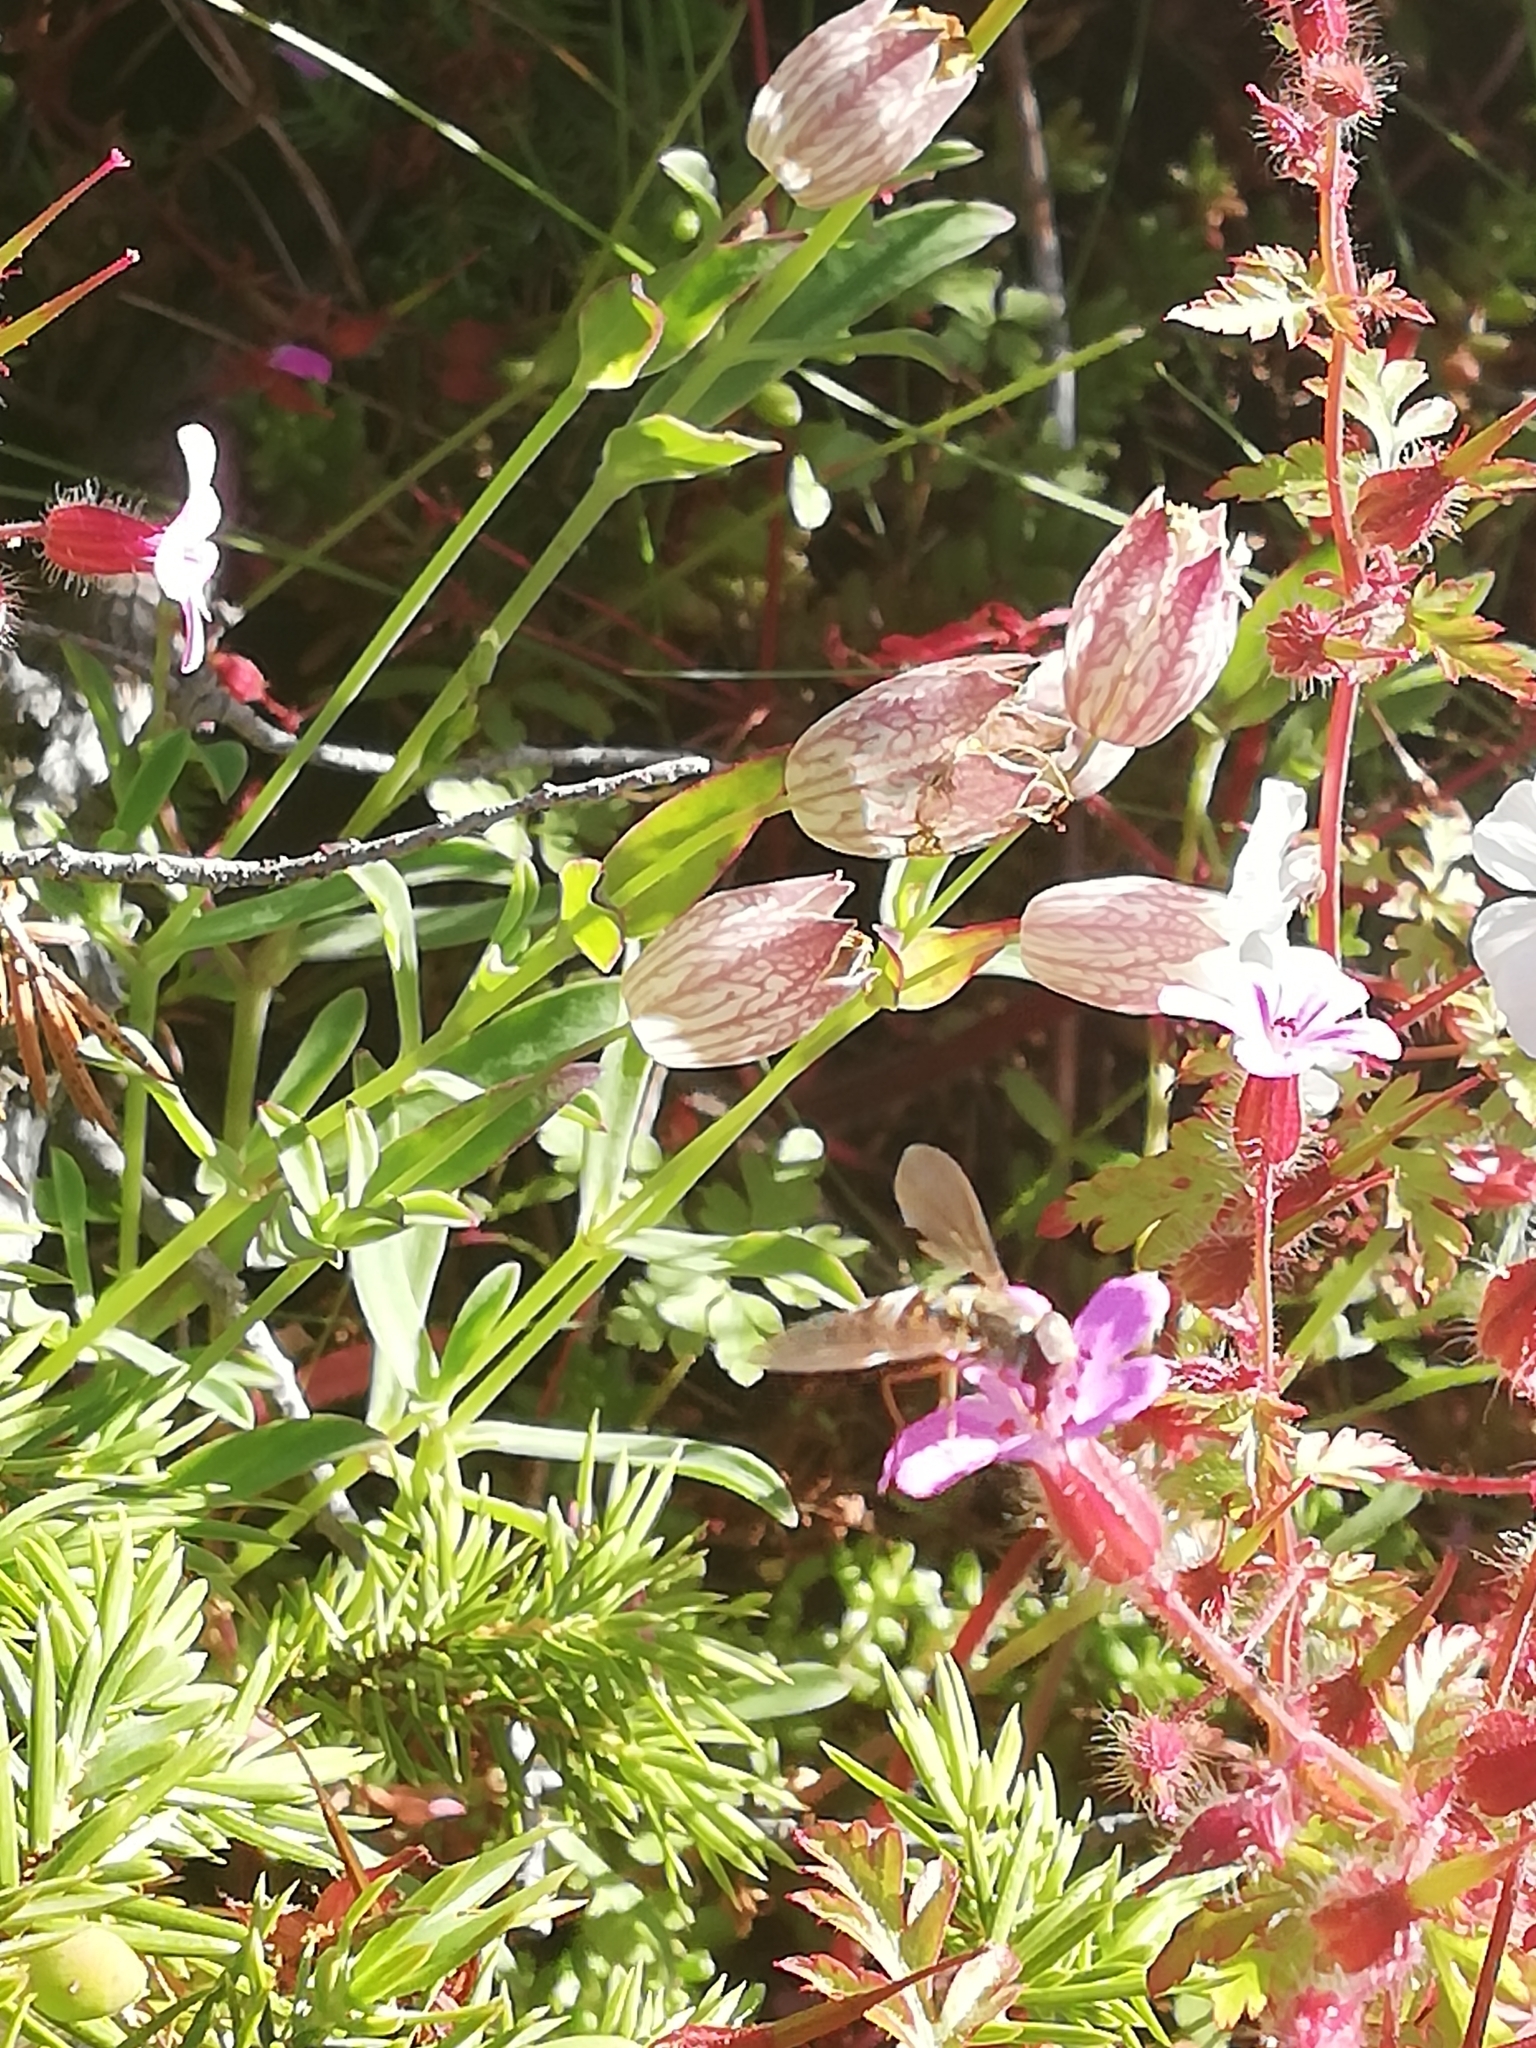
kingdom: Plantae
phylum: Tracheophyta
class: Magnoliopsida
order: Caryophyllales
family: Caryophyllaceae
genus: Silene
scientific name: Silene uniflora
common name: Sea campion
